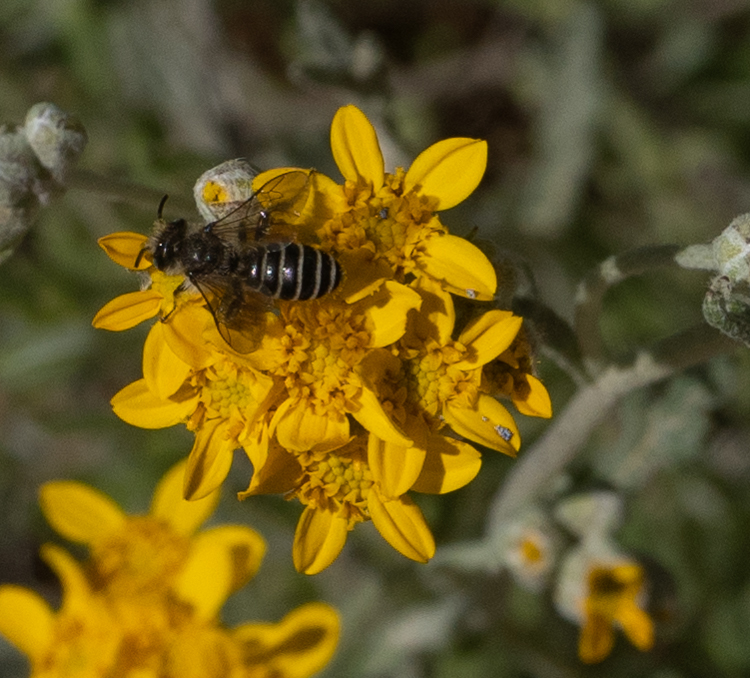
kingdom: Animalia
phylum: Arthropoda
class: Insecta
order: Hymenoptera
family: Melittidae
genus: Hesperapis
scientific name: Hesperapis
